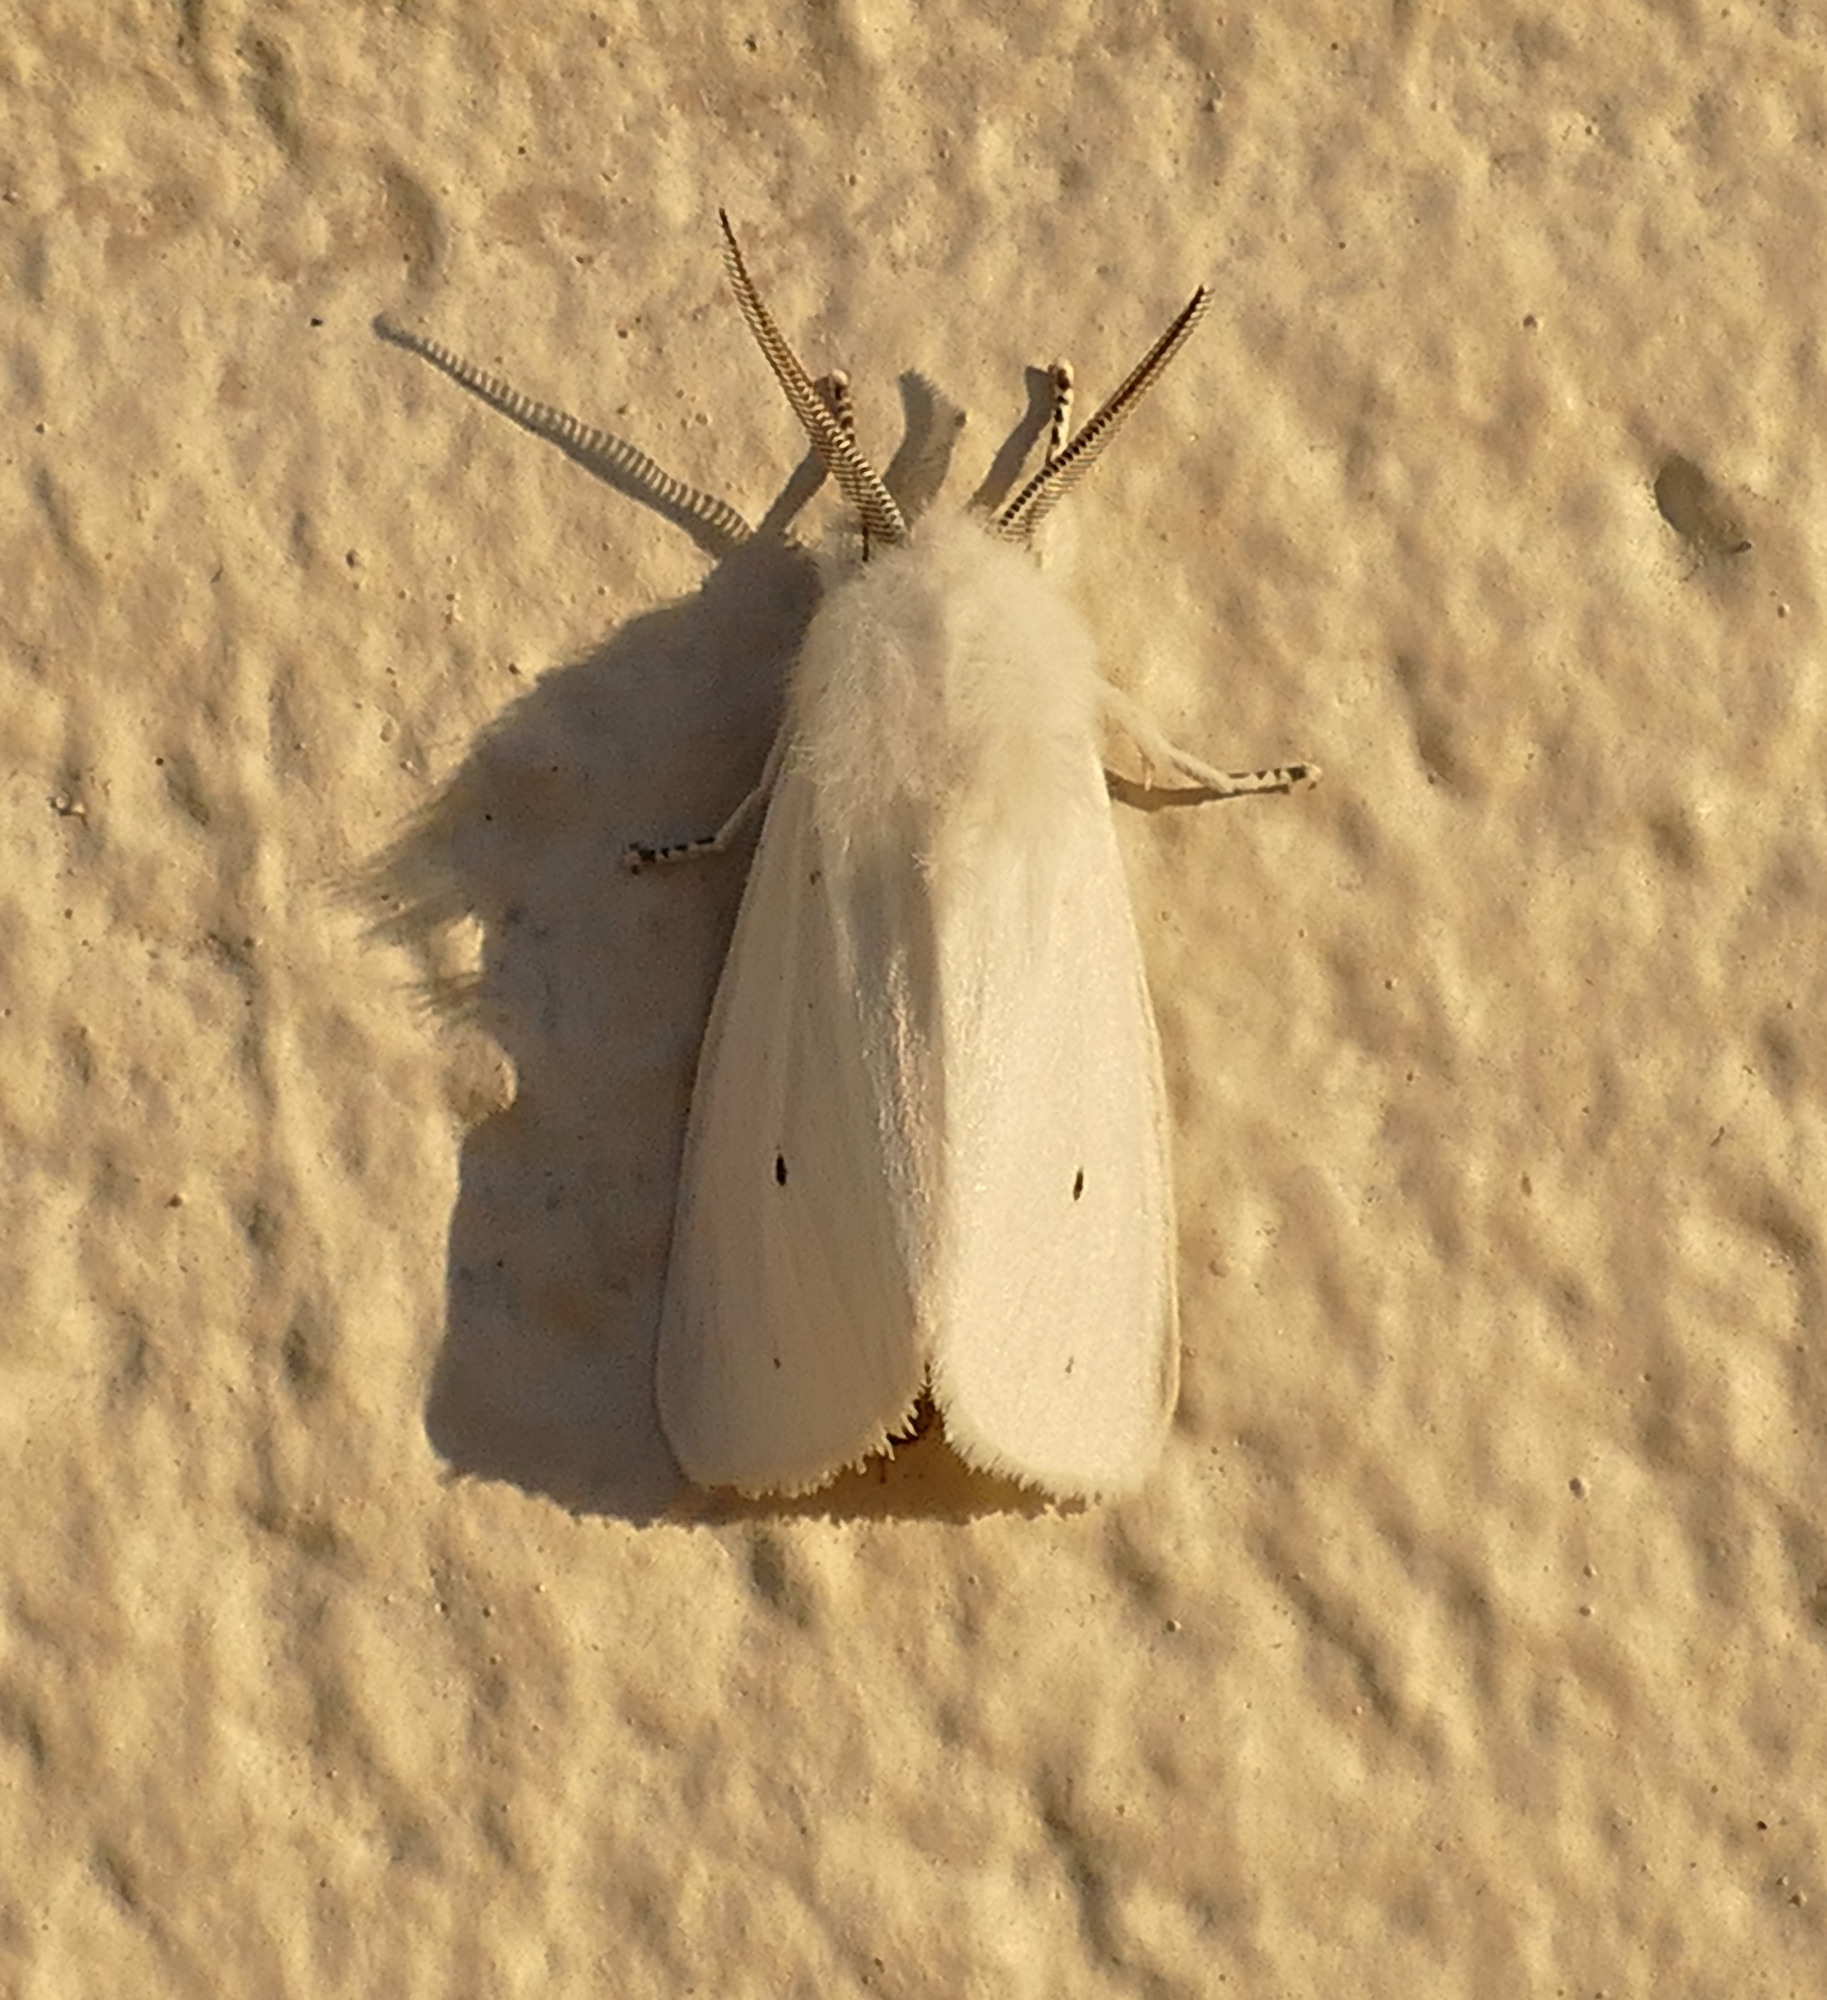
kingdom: Animalia
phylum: Arthropoda
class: Insecta
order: Lepidoptera
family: Erebidae
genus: Spilosoma
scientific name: Spilosoma virginica
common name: Virginia tiger moth
